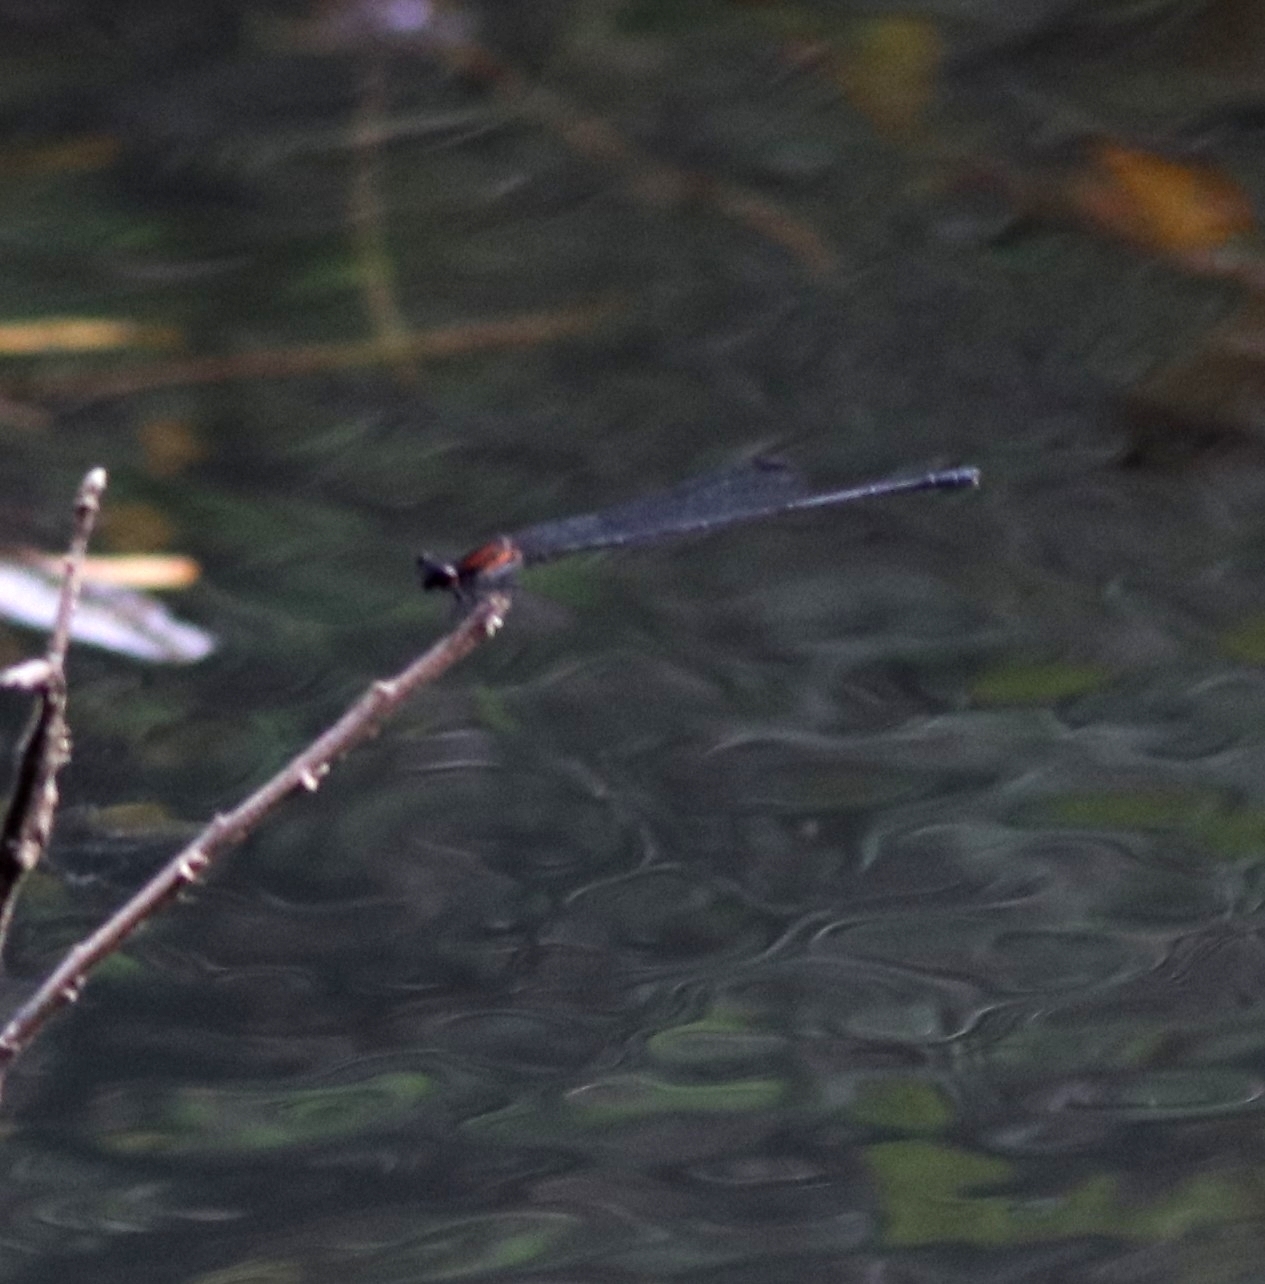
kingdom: Animalia
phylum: Arthropoda
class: Insecta
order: Odonata
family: Platycnemididae
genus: Prodasineura
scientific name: Prodasineura verticalis
